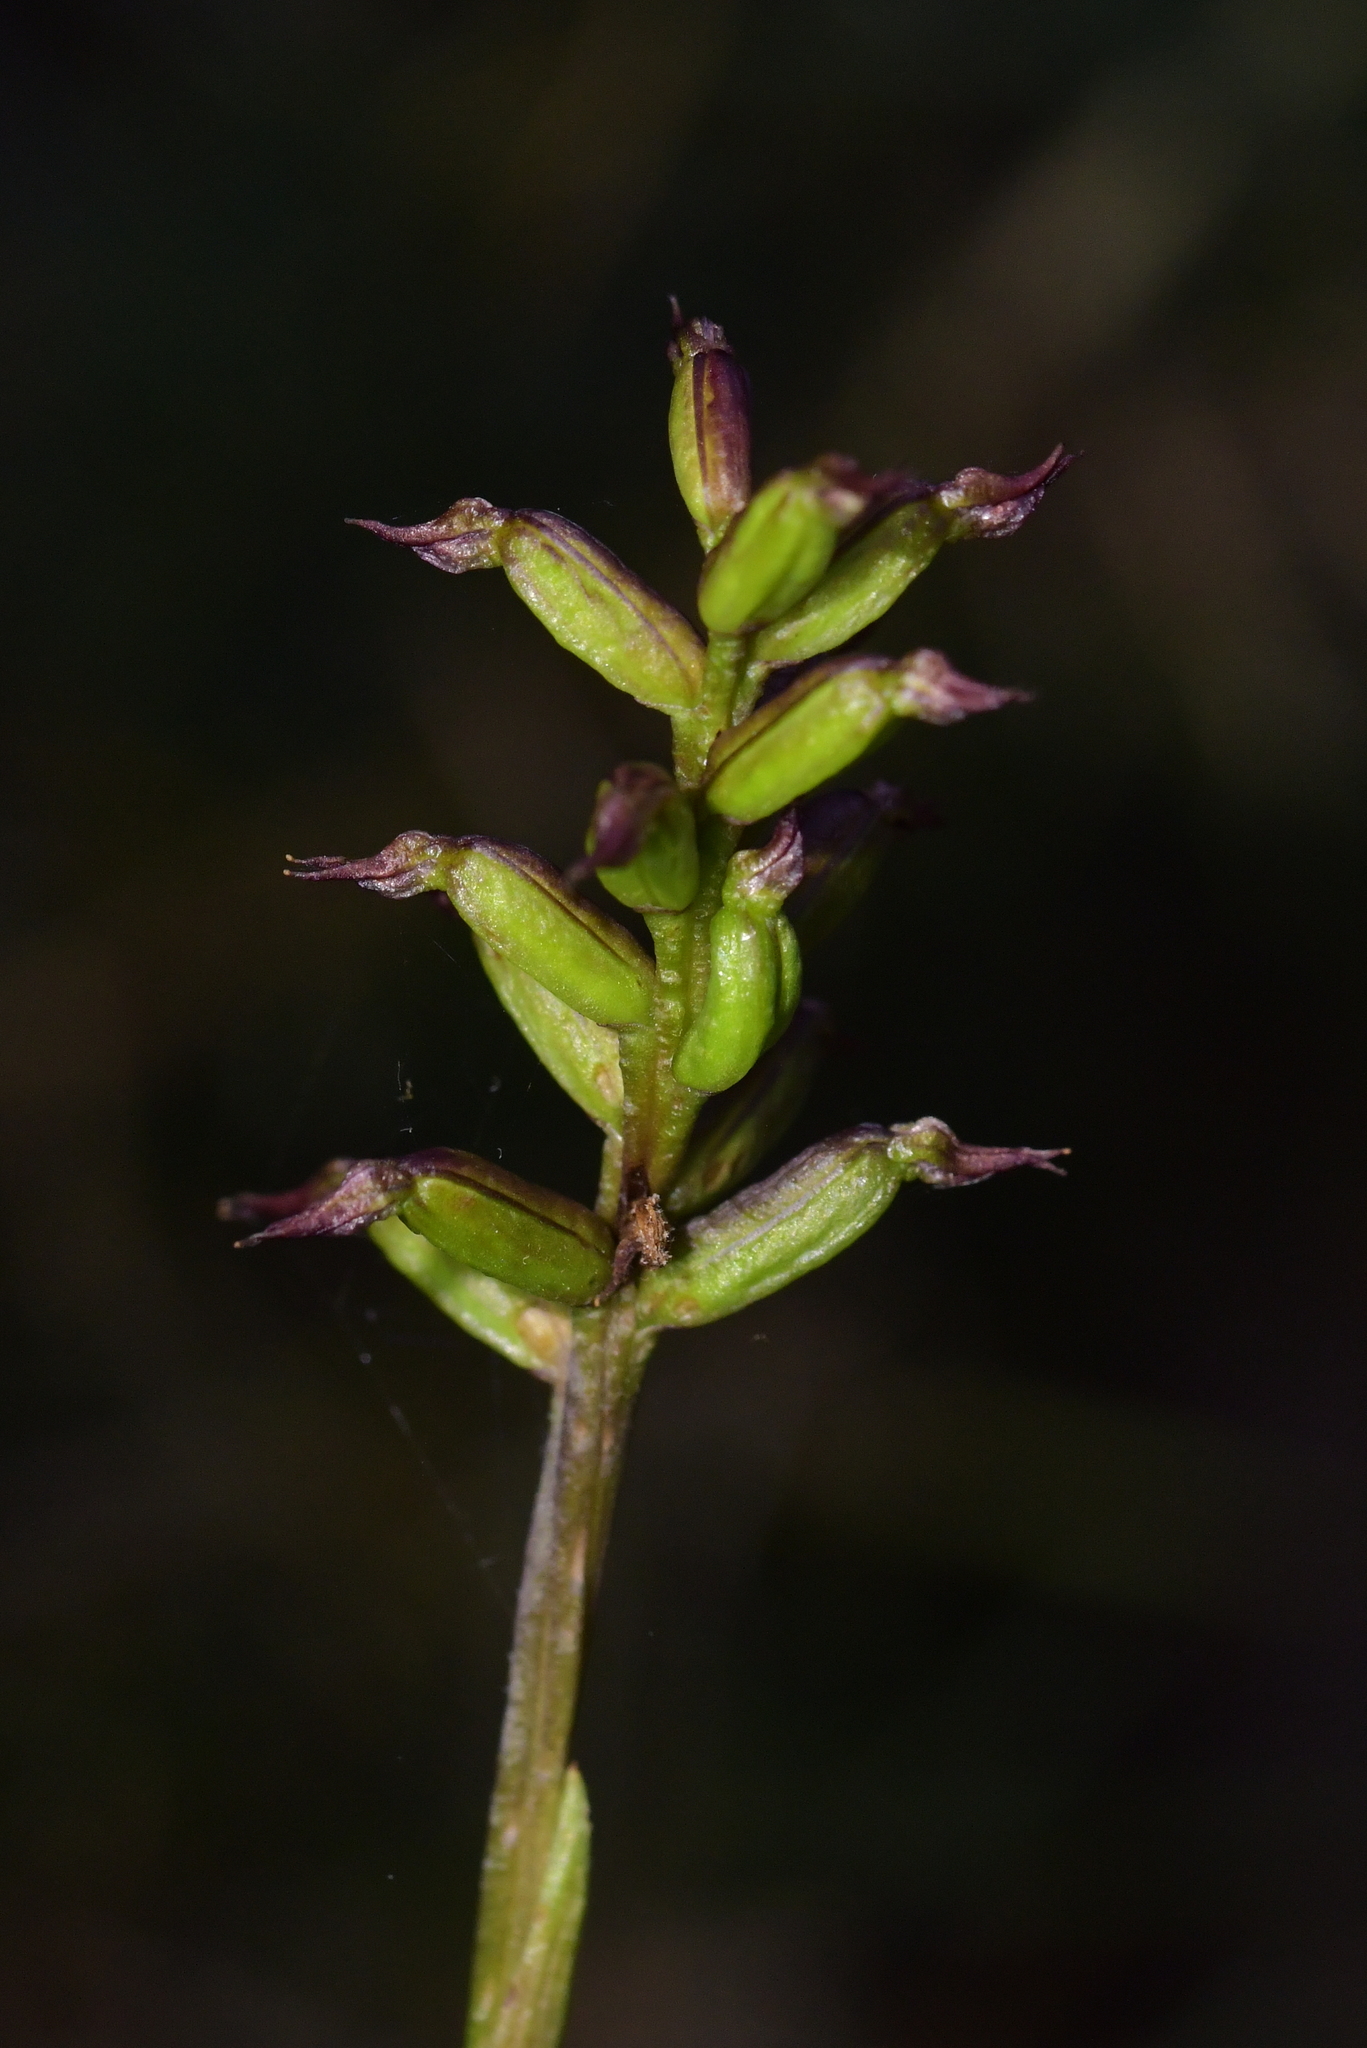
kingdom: Plantae
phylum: Tracheophyta
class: Liliopsida
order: Asparagales
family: Orchidaceae
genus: Genoplesium
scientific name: Genoplesium nudum
